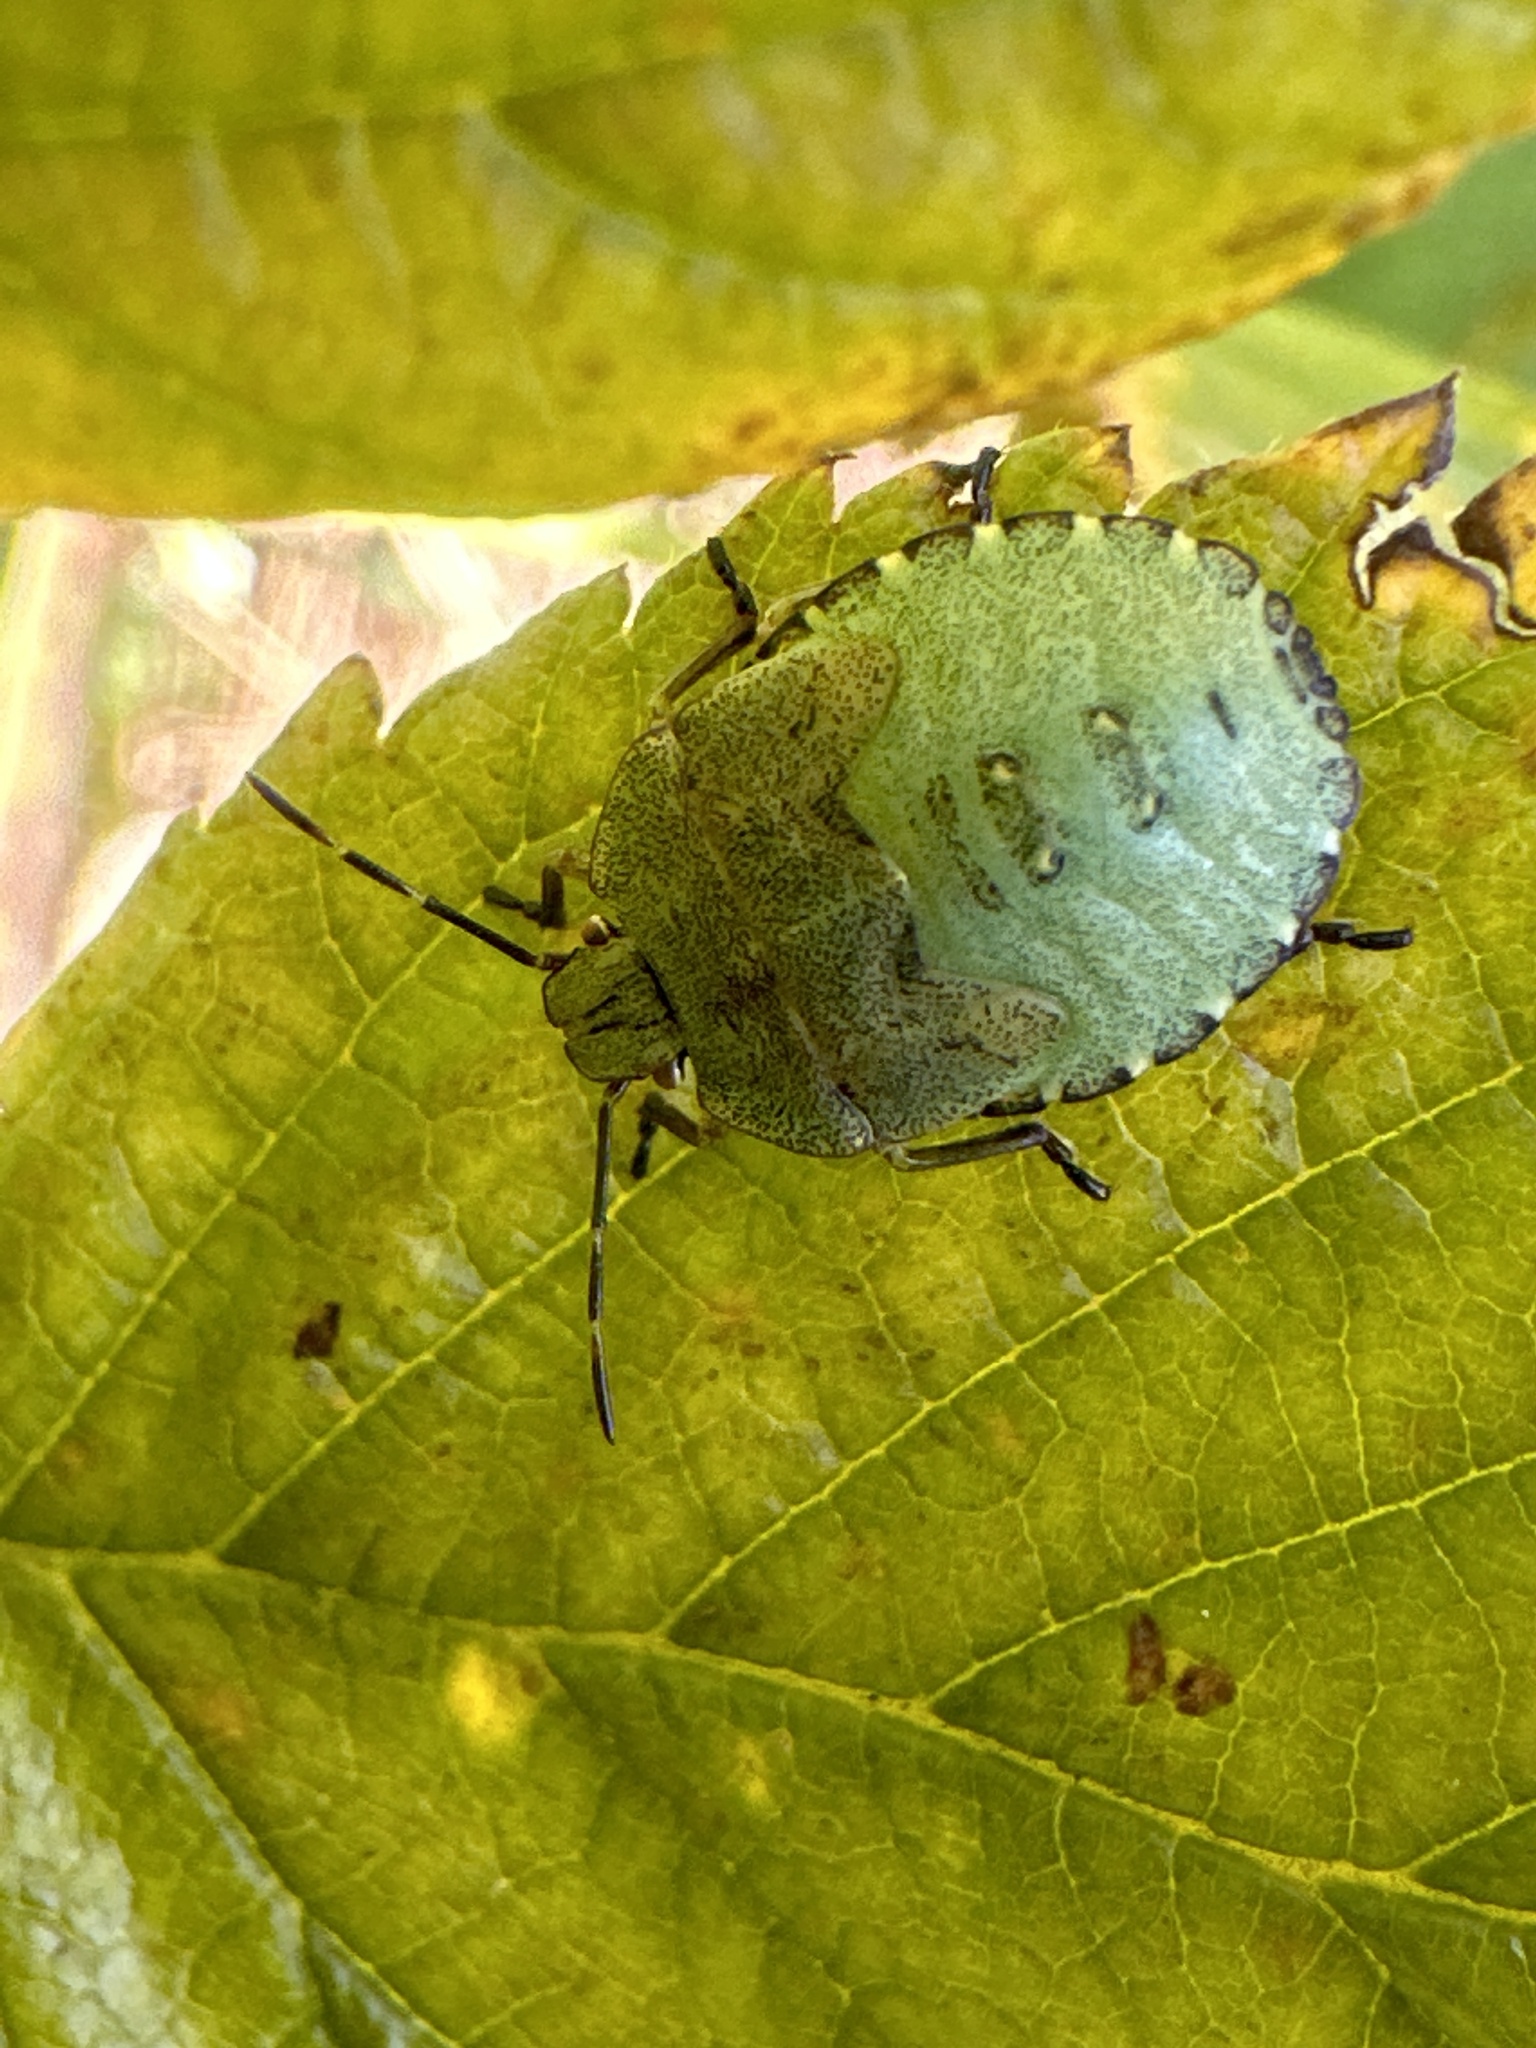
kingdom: Animalia
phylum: Arthropoda
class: Insecta
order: Hemiptera
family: Pentatomidae
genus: Palomena
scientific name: Palomena prasina
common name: Green shieldbug
